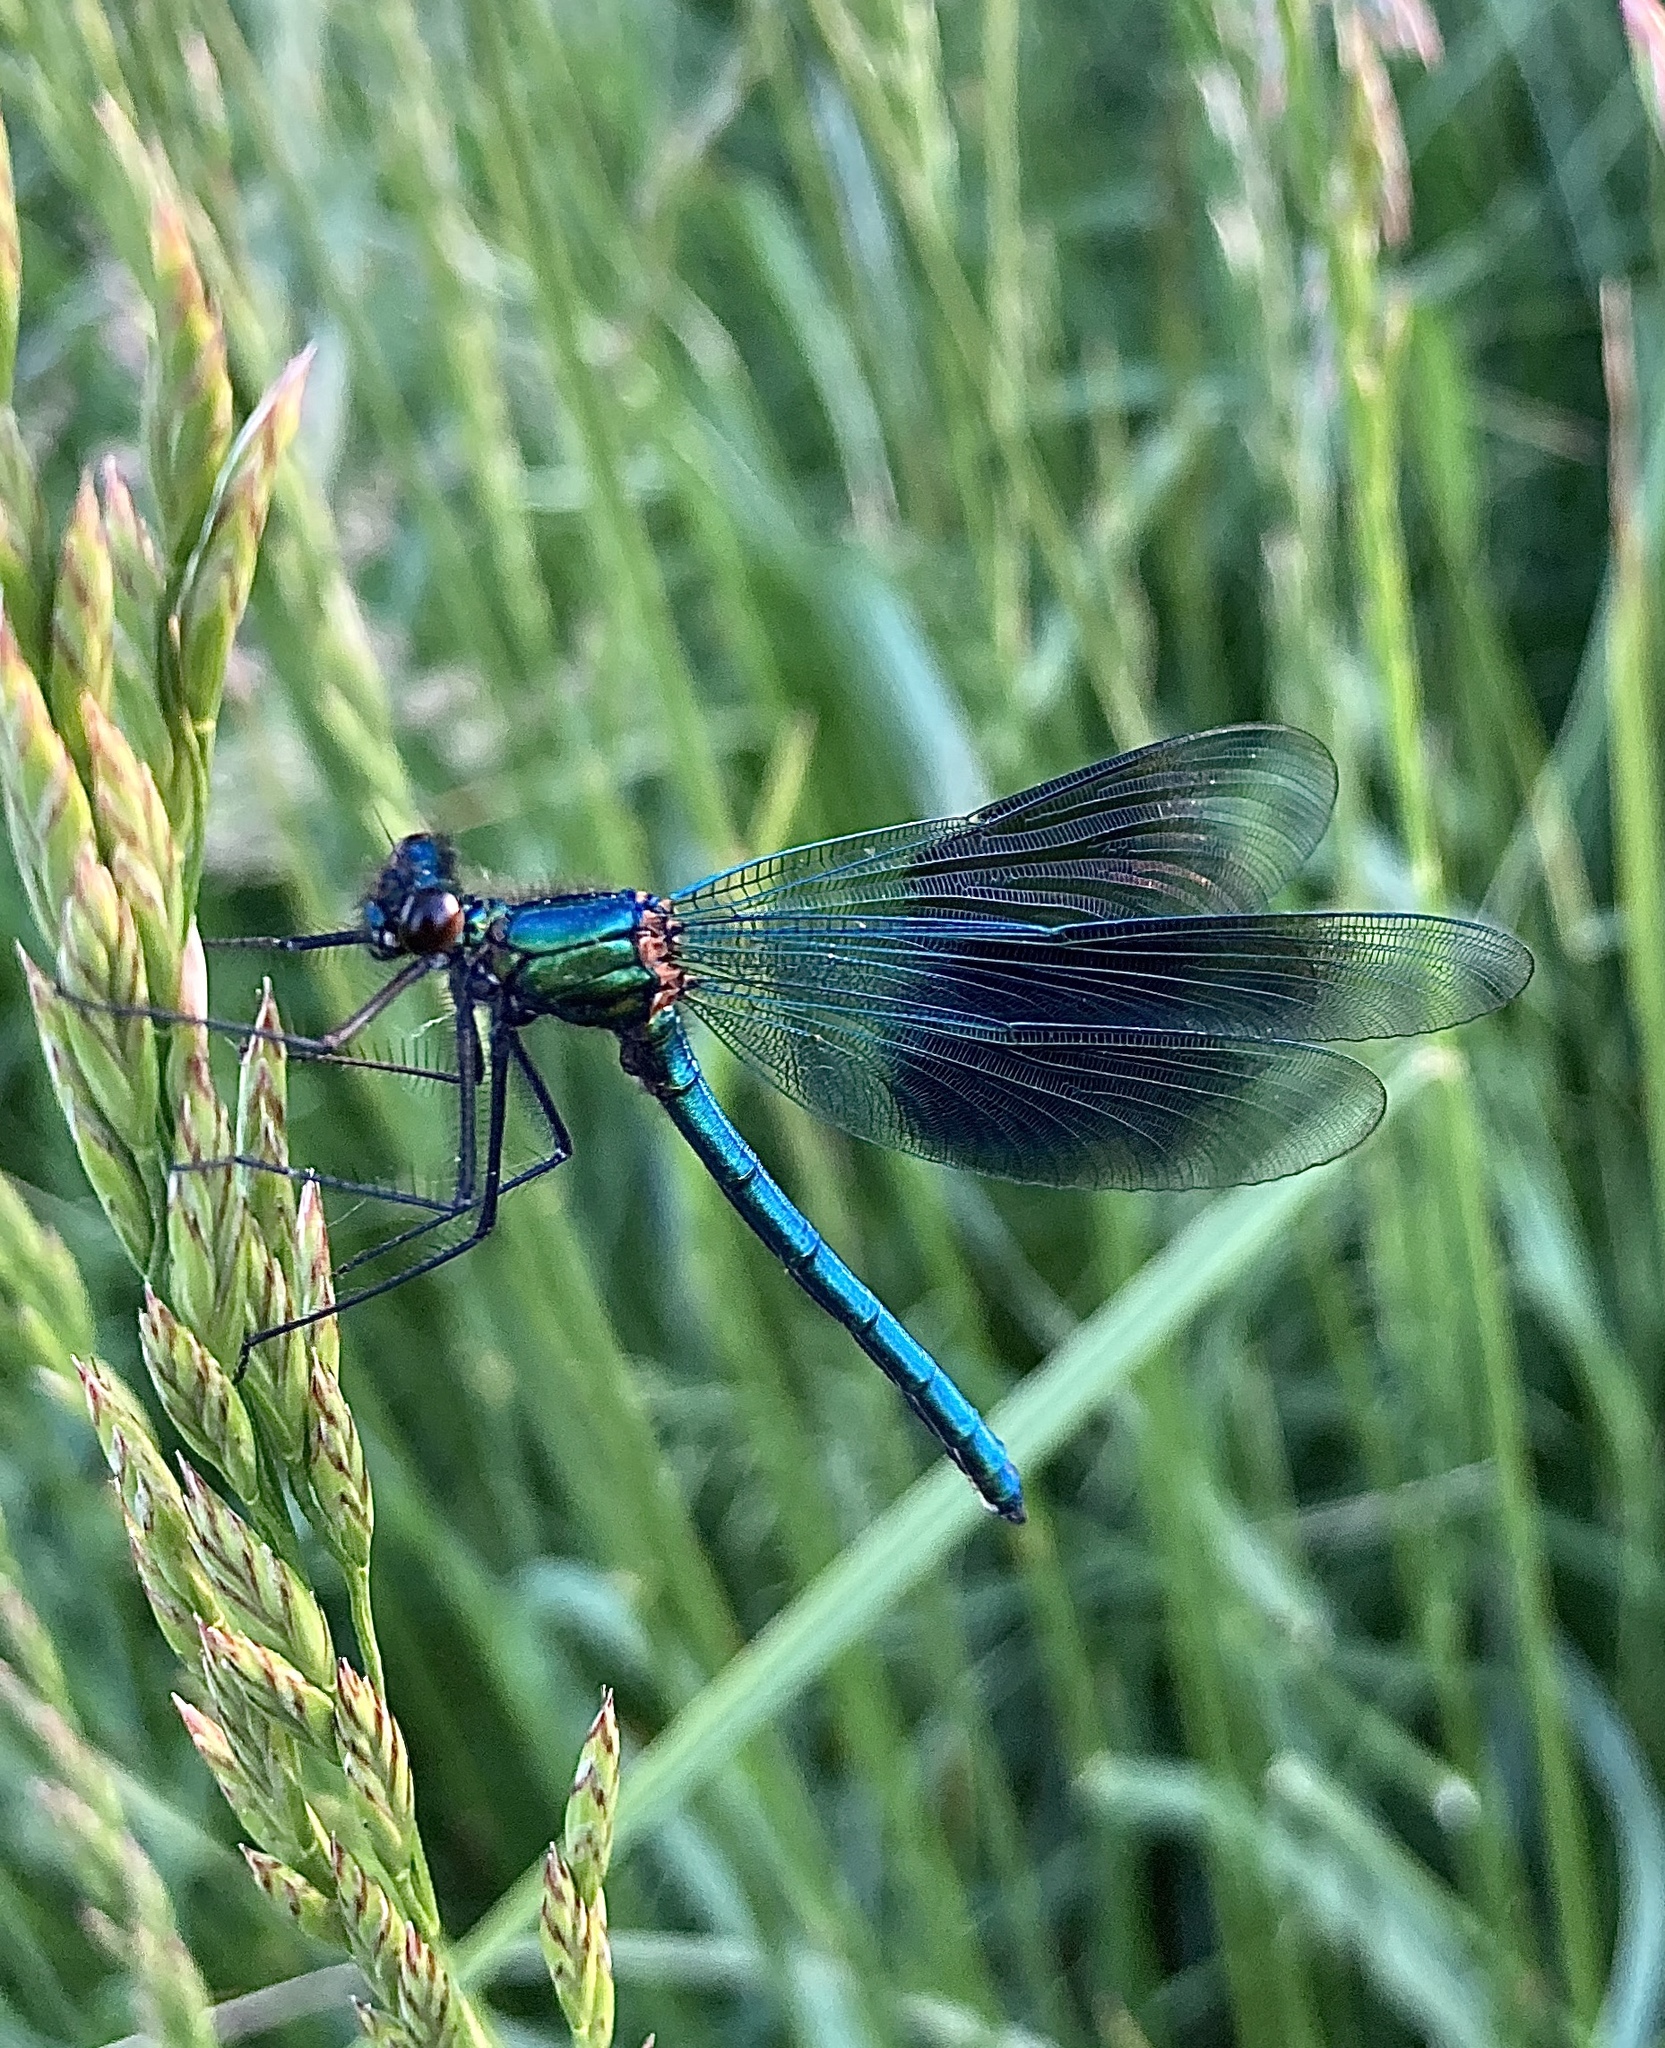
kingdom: Animalia
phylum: Arthropoda
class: Insecta
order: Odonata
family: Calopterygidae
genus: Calopteryx
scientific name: Calopteryx splendens
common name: Banded demoiselle
